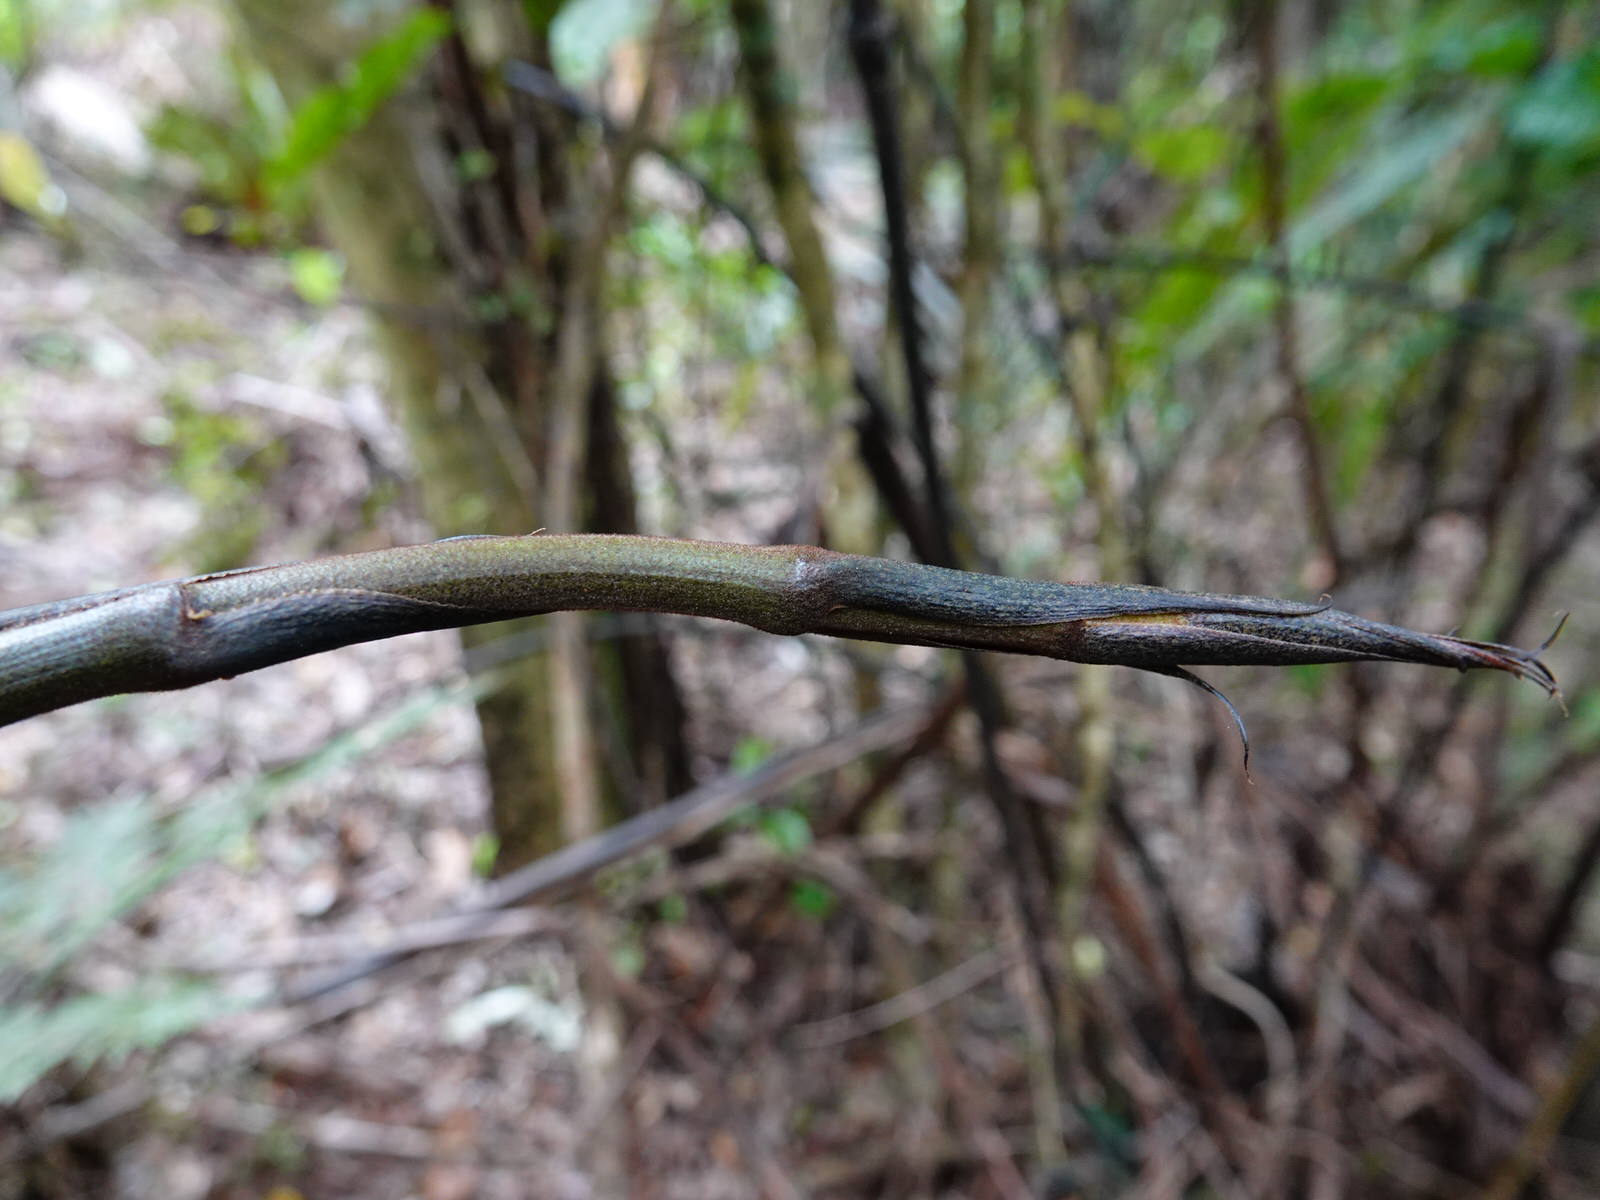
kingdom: Plantae
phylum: Tracheophyta
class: Liliopsida
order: Liliales
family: Ripogonaceae
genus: Ripogonum
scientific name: Ripogonum scandens
